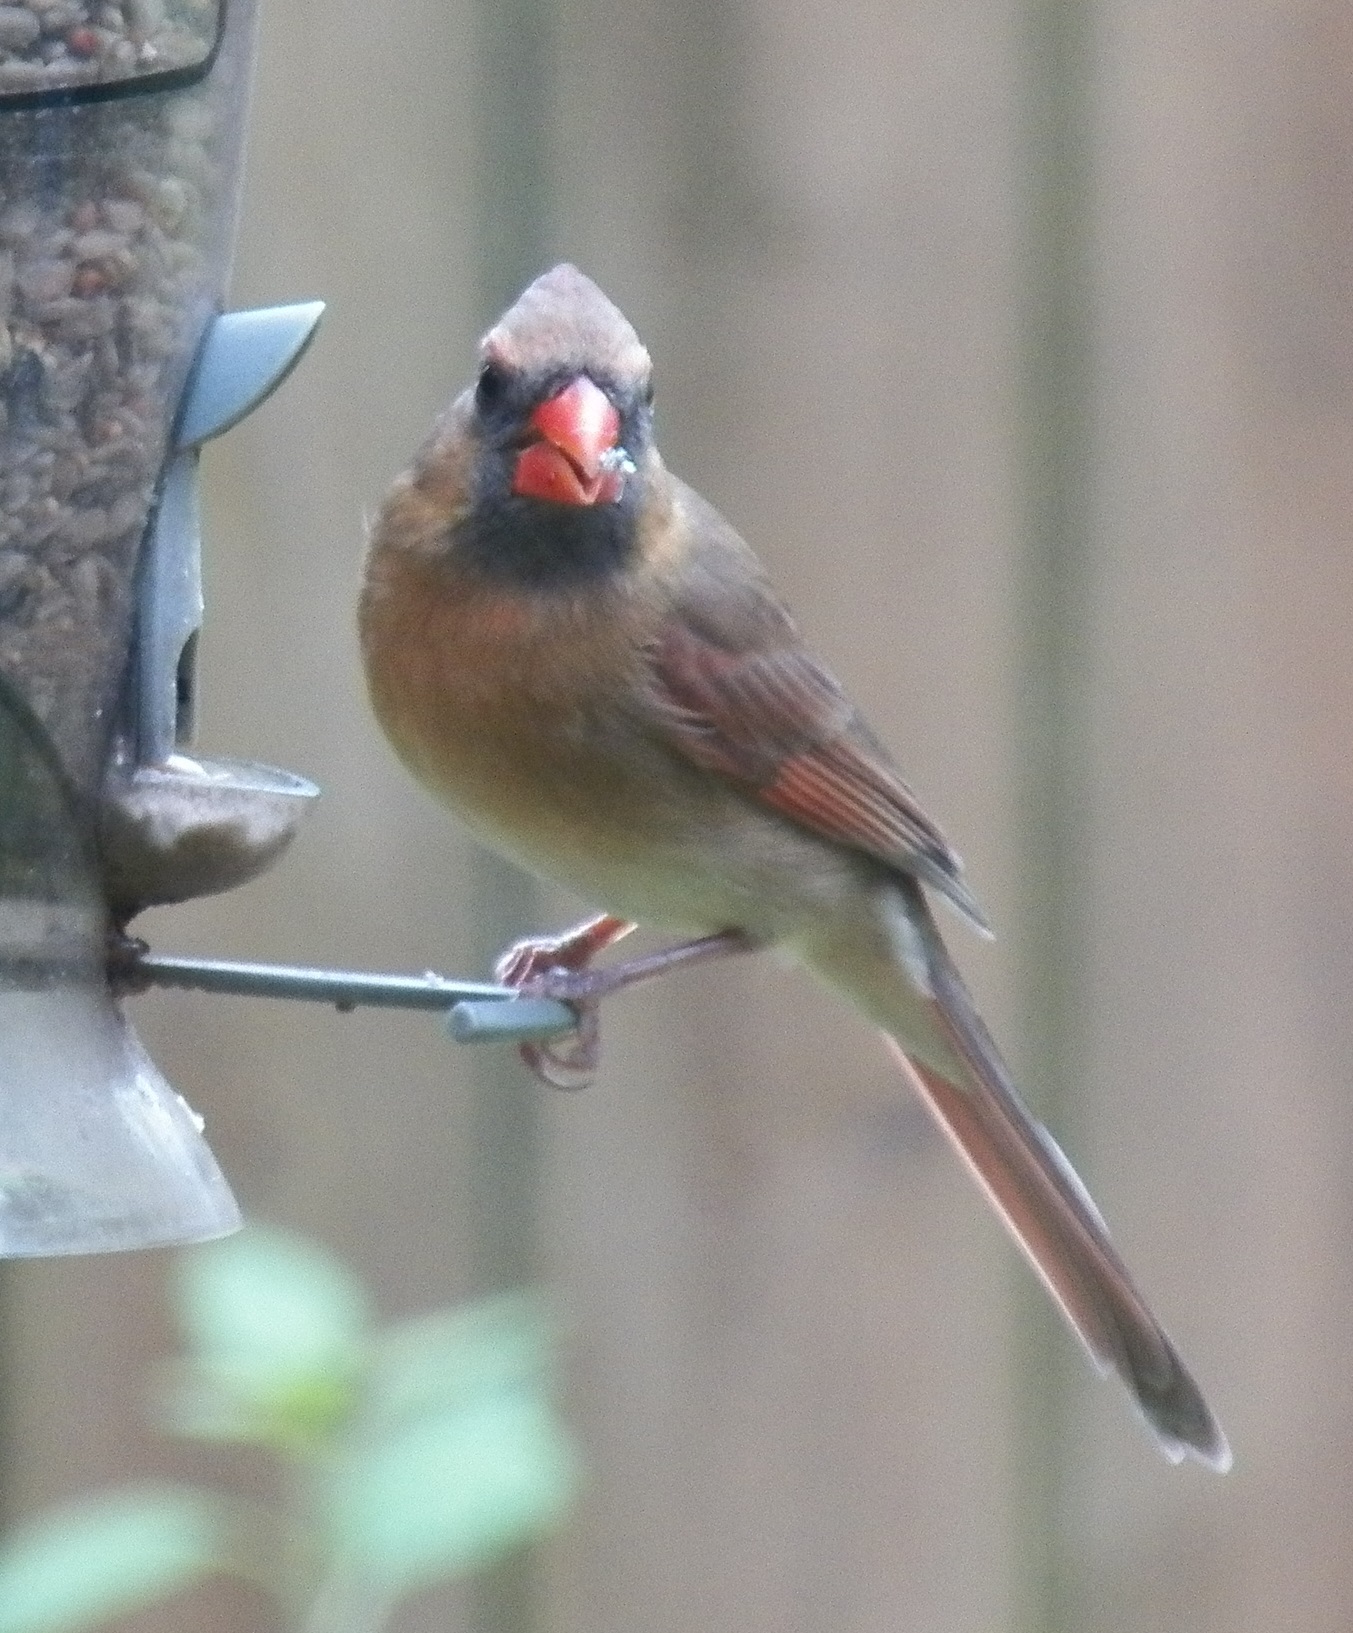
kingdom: Animalia
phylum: Chordata
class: Aves
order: Passeriformes
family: Cardinalidae
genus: Cardinalis
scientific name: Cardinalis cardinalis
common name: Northern cardinal
